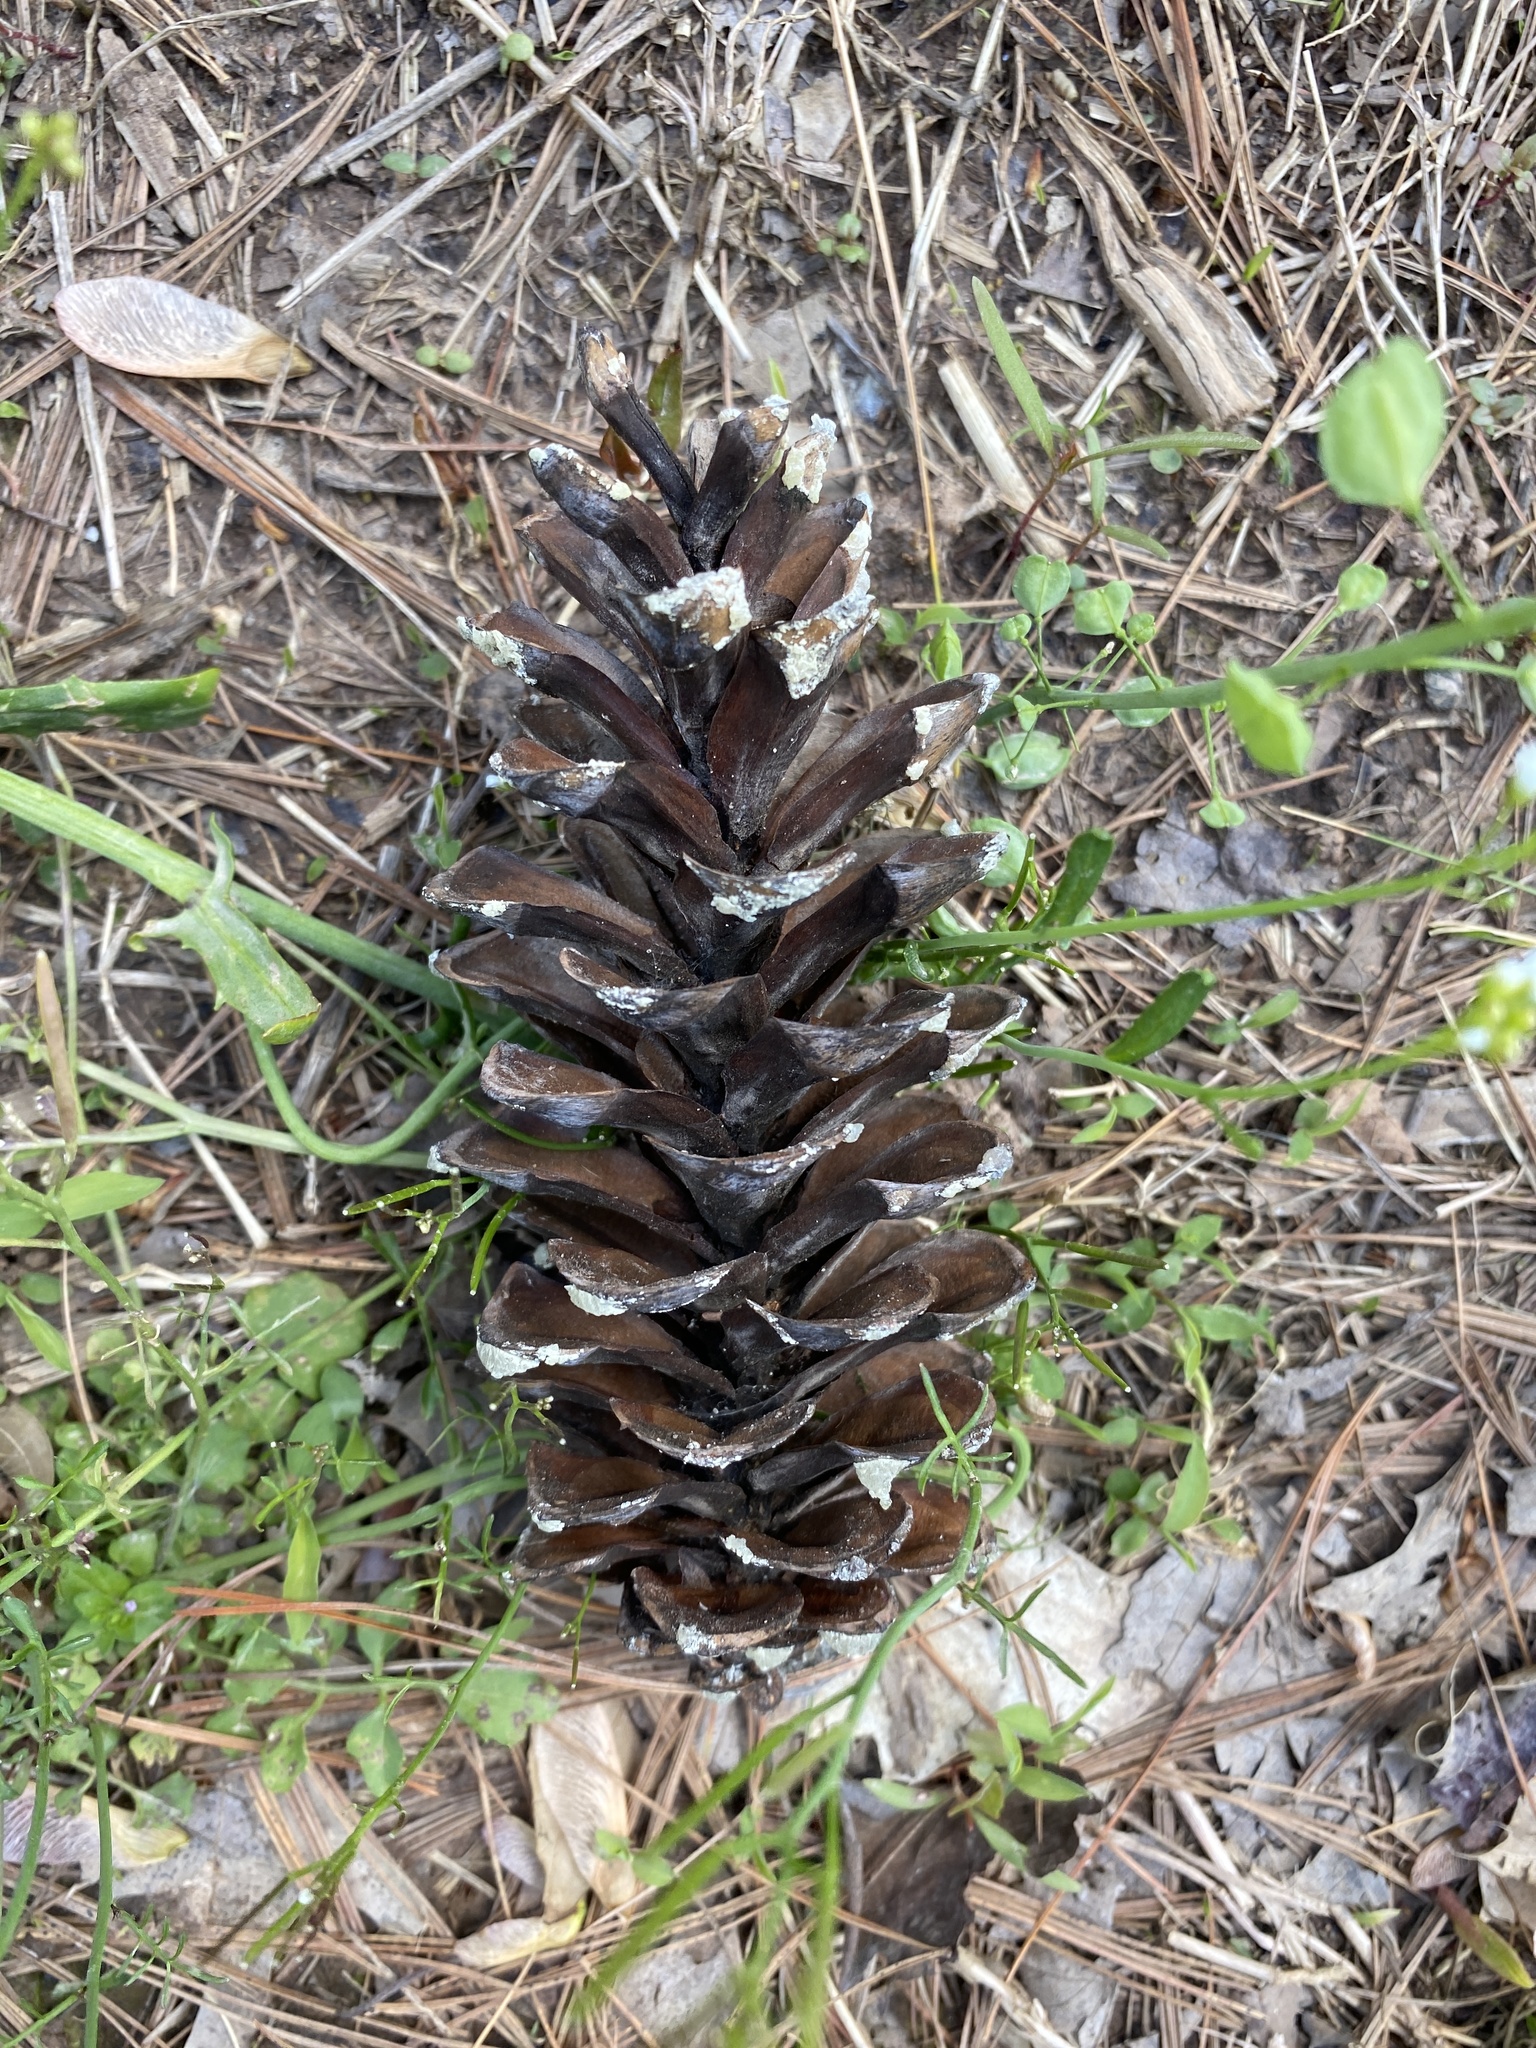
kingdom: Plantae
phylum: Tracheophyta
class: Pinopsida
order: Pinales
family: Pinaceae
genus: Pinus
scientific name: Pinus strobus
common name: Weymouth pine
